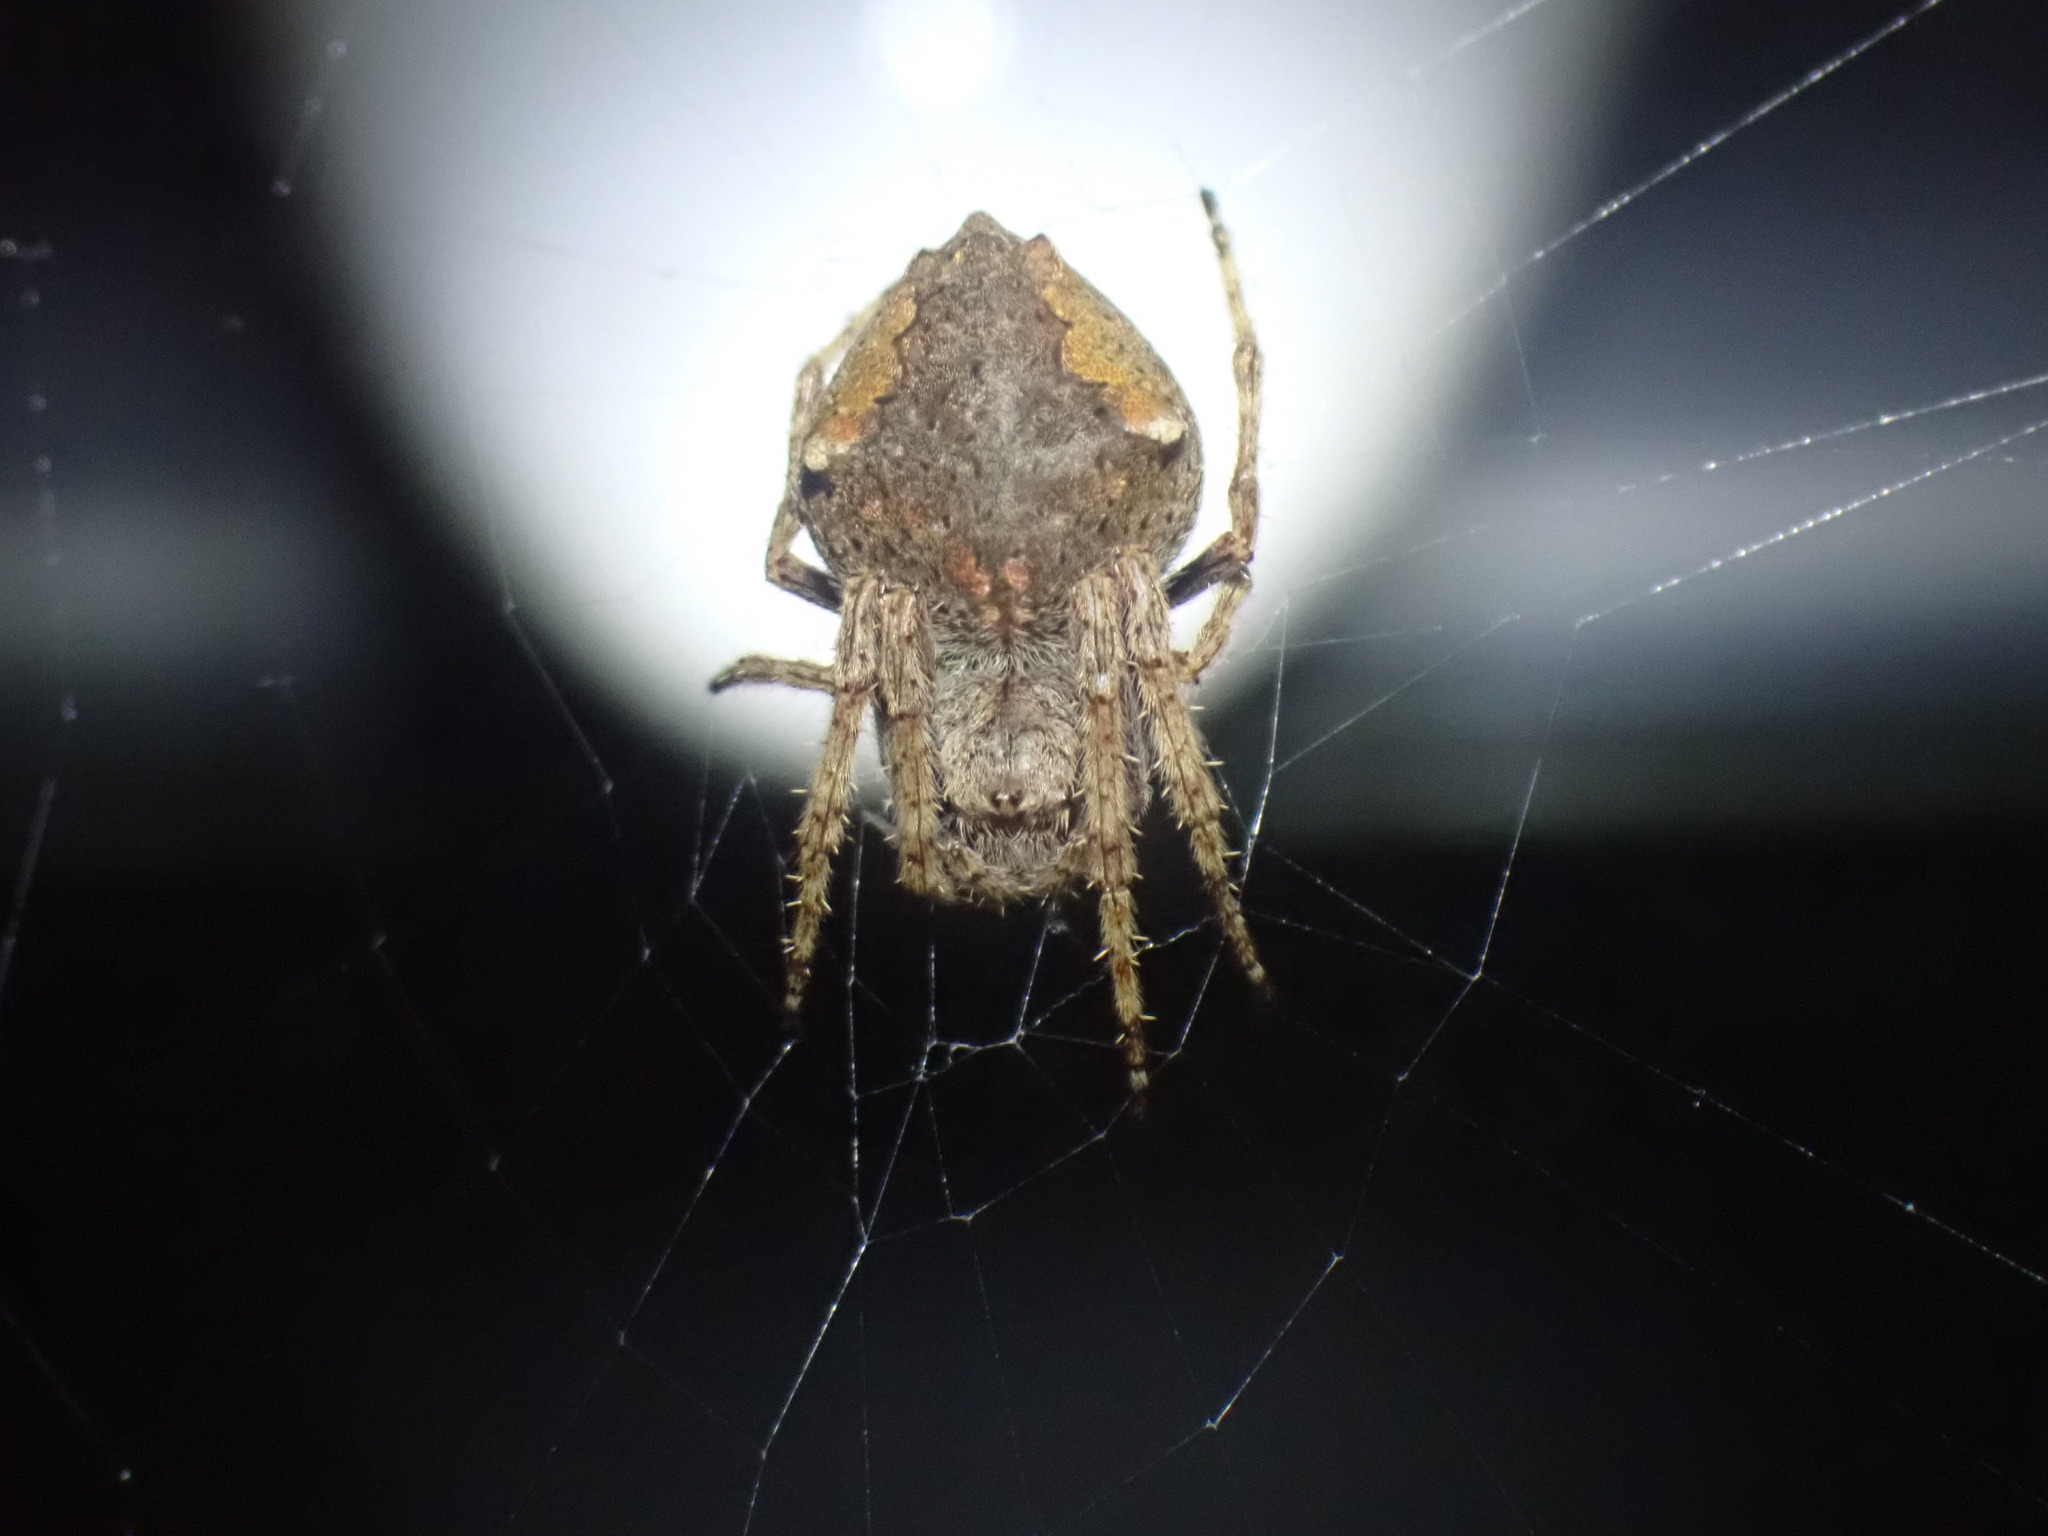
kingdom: Animalia
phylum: Arthropoda
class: Arachnida
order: Araneae
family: Araneidae
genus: Eriophora
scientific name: Eriophora pustulosa
